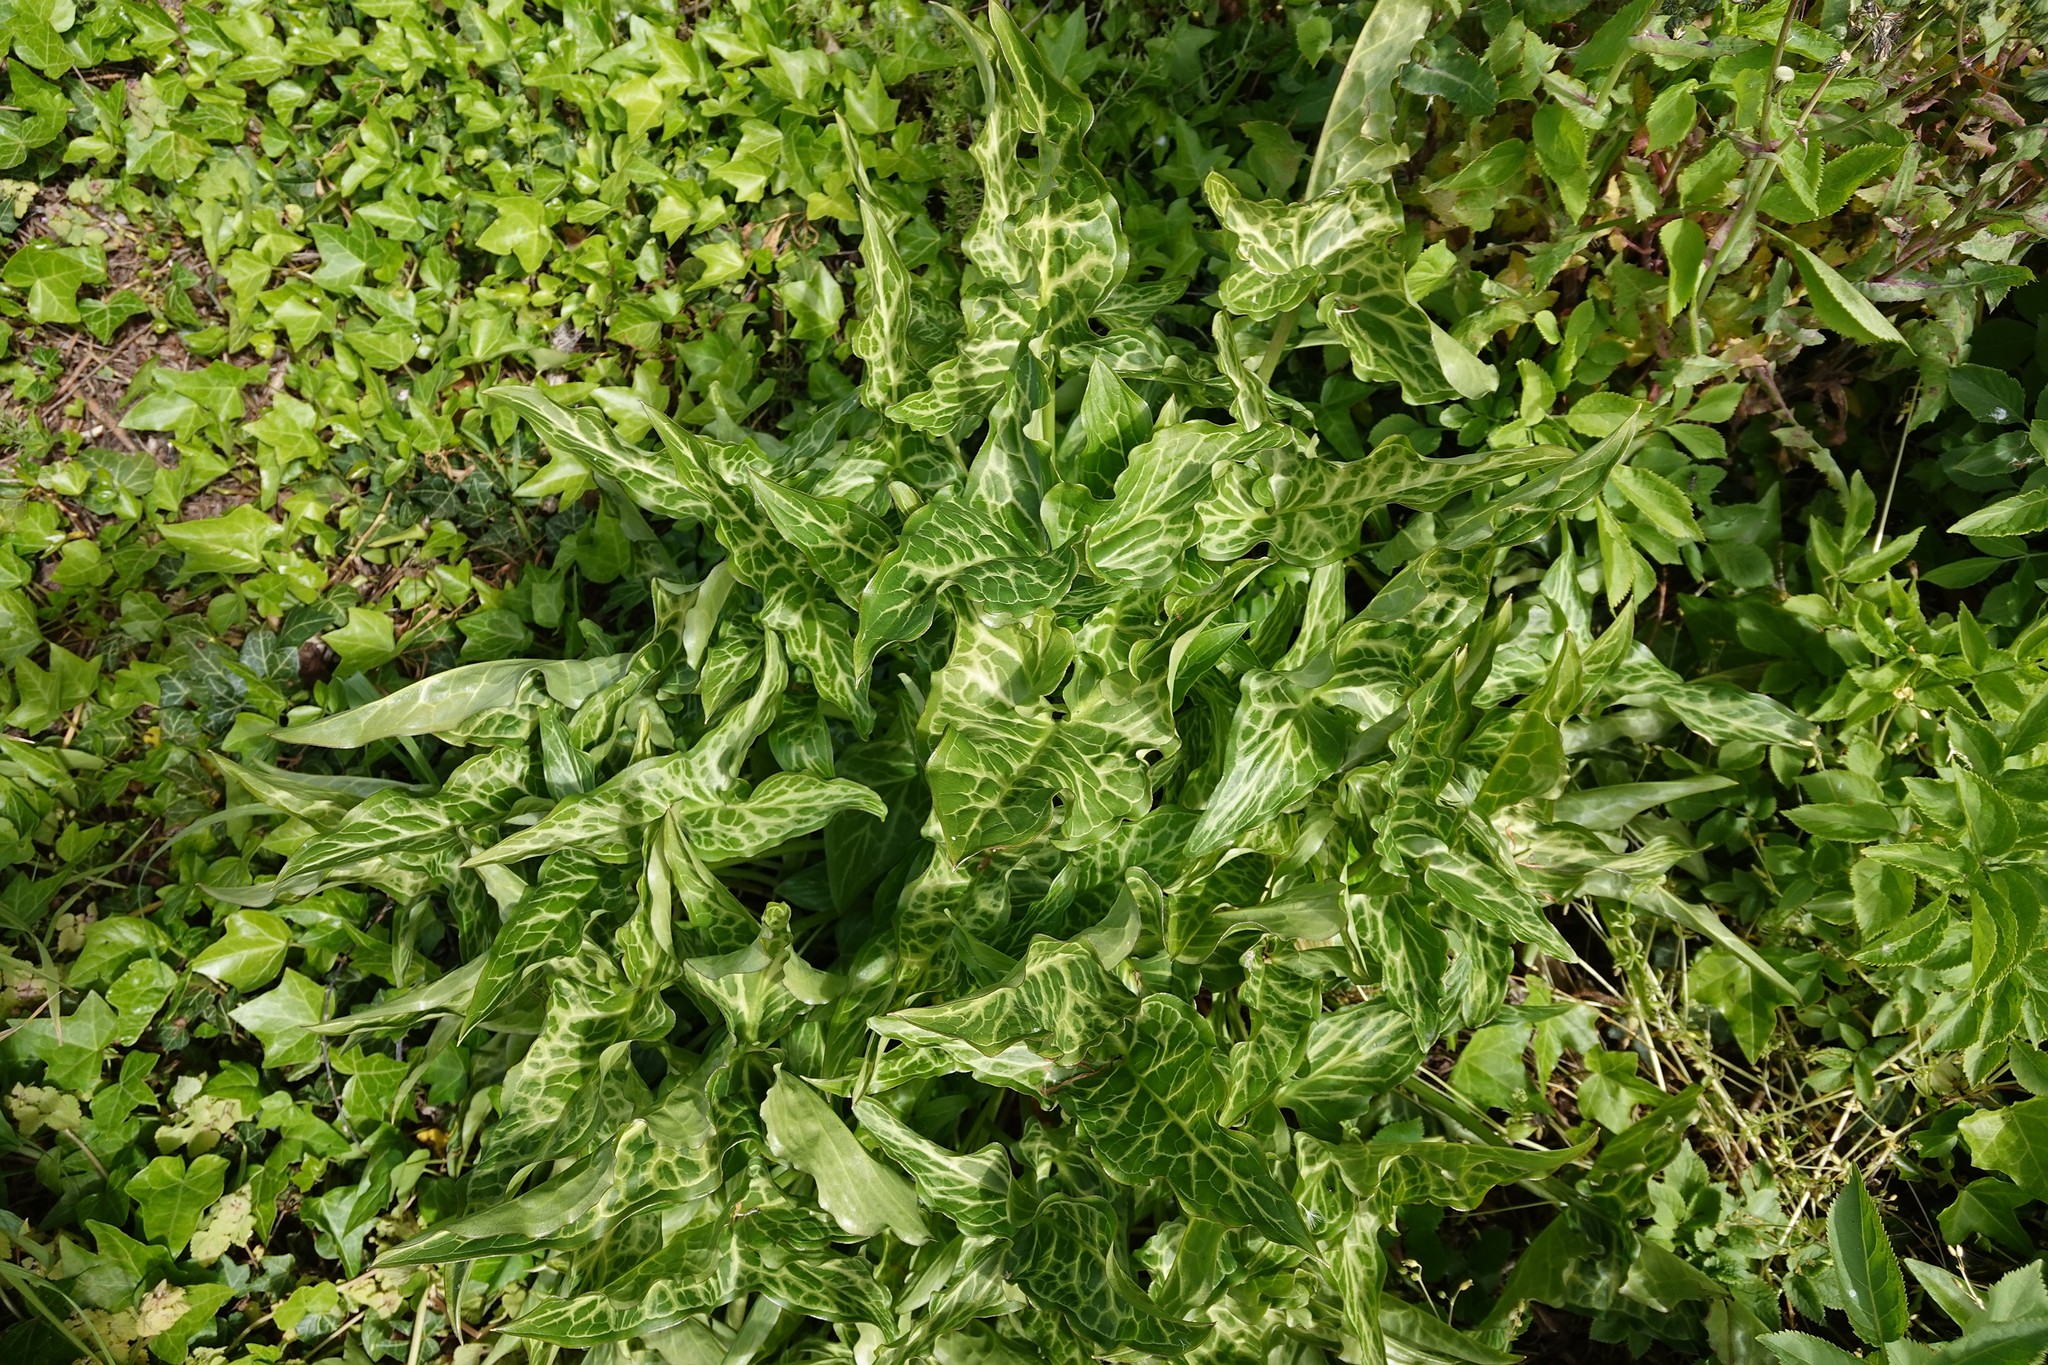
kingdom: Plantae
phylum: Tracheophyta
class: Liliopsida
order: Alismatales
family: Araceae
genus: Arum
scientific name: Arum italicum
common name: Italian lords-and-ladies
